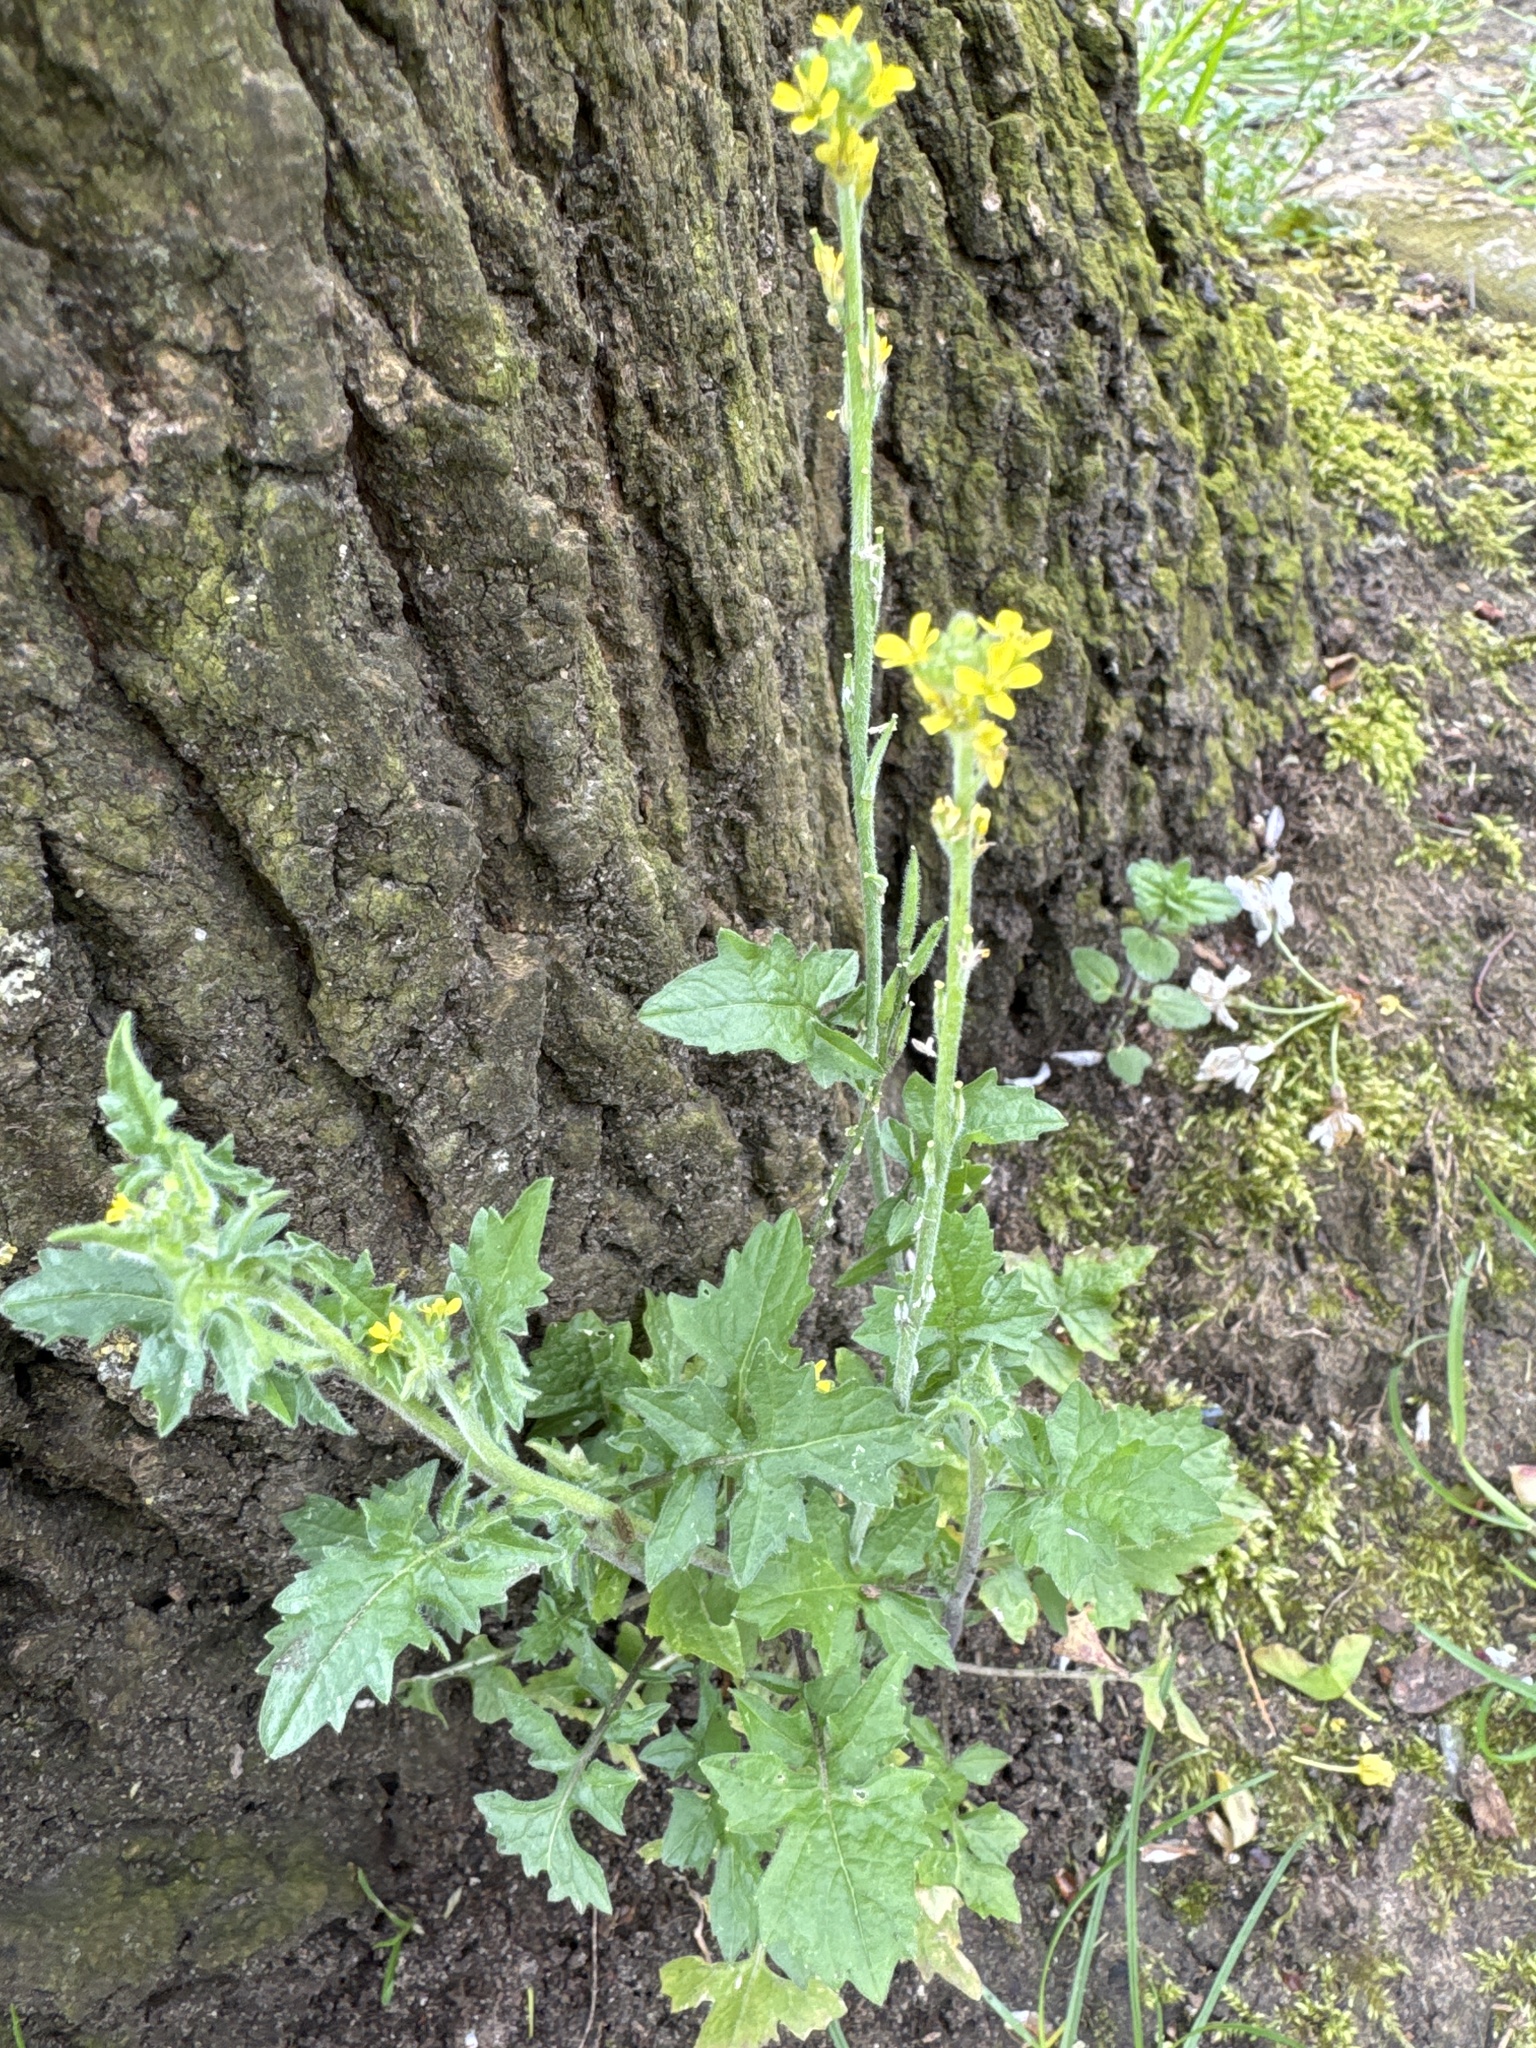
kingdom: Plantae
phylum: Tracheophyta
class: Magnoliopsida
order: Brassicales
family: Brassicaceae
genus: Sisymbrium
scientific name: Sisymbrium officinale
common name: Hedge mustard
